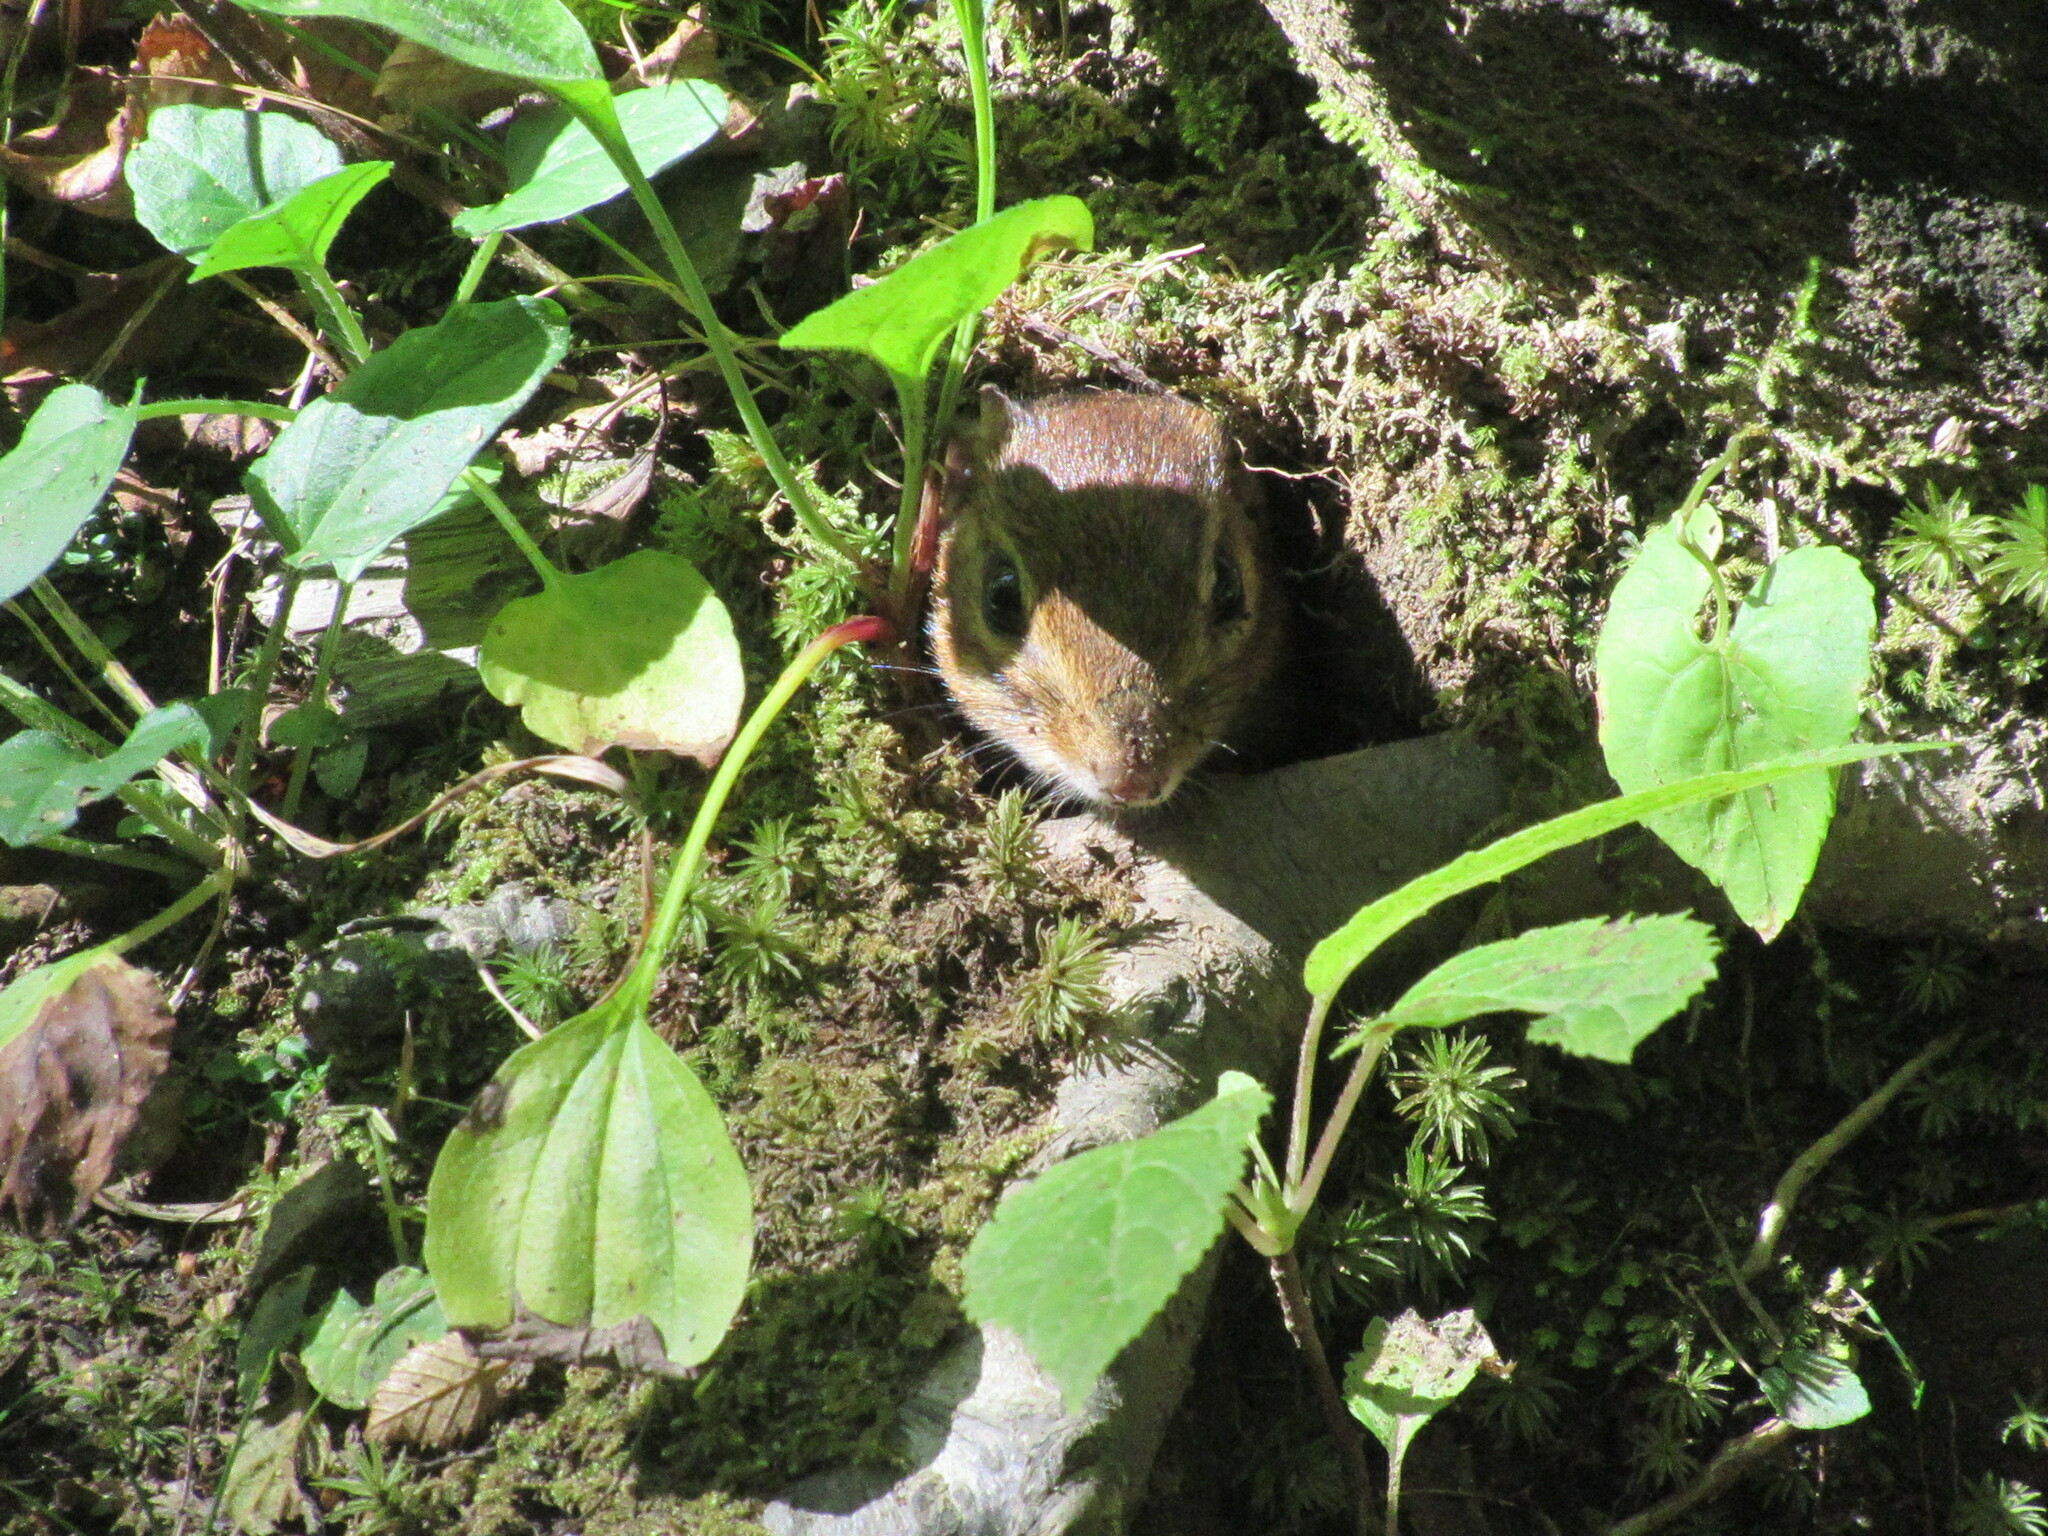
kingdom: Animalia
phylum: Chordata
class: Mammalia
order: Rodentia
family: Sciuridae
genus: Tamias
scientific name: Tamias striatus
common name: Eastern chipmunk
